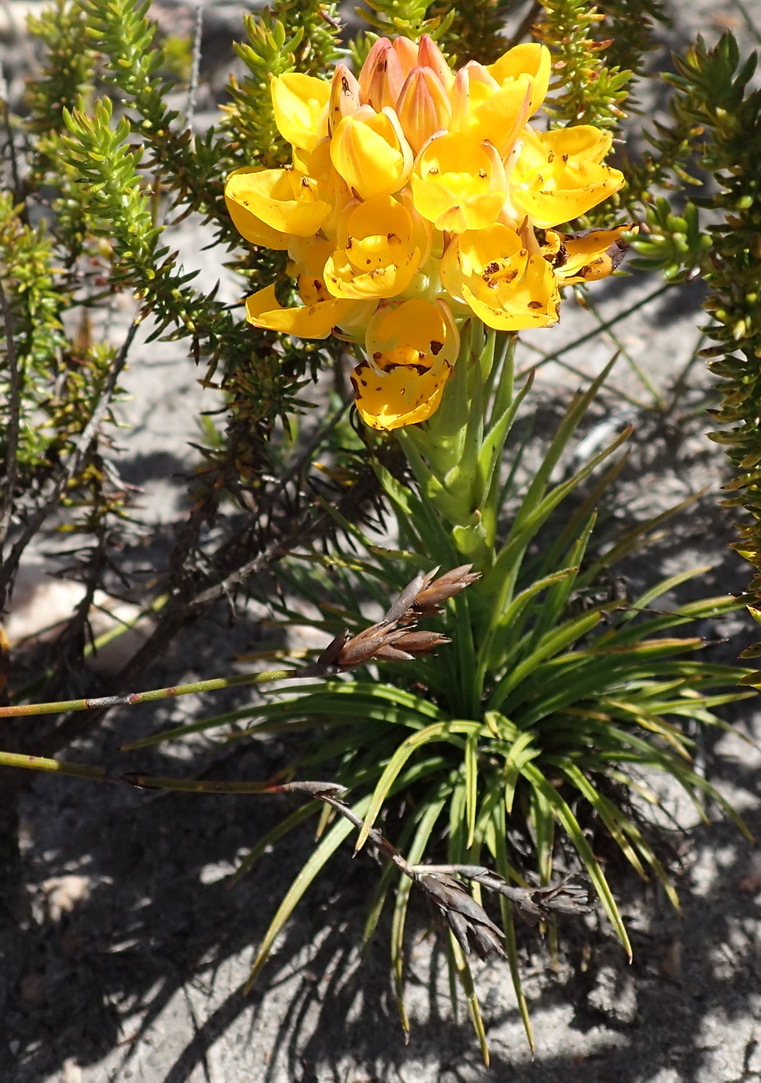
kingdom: Plantae
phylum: Tracheophyta
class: Liliopsida
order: Asparagales
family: Orchidaceae
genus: Ceratandra
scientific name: Ceratandra grandiflora
